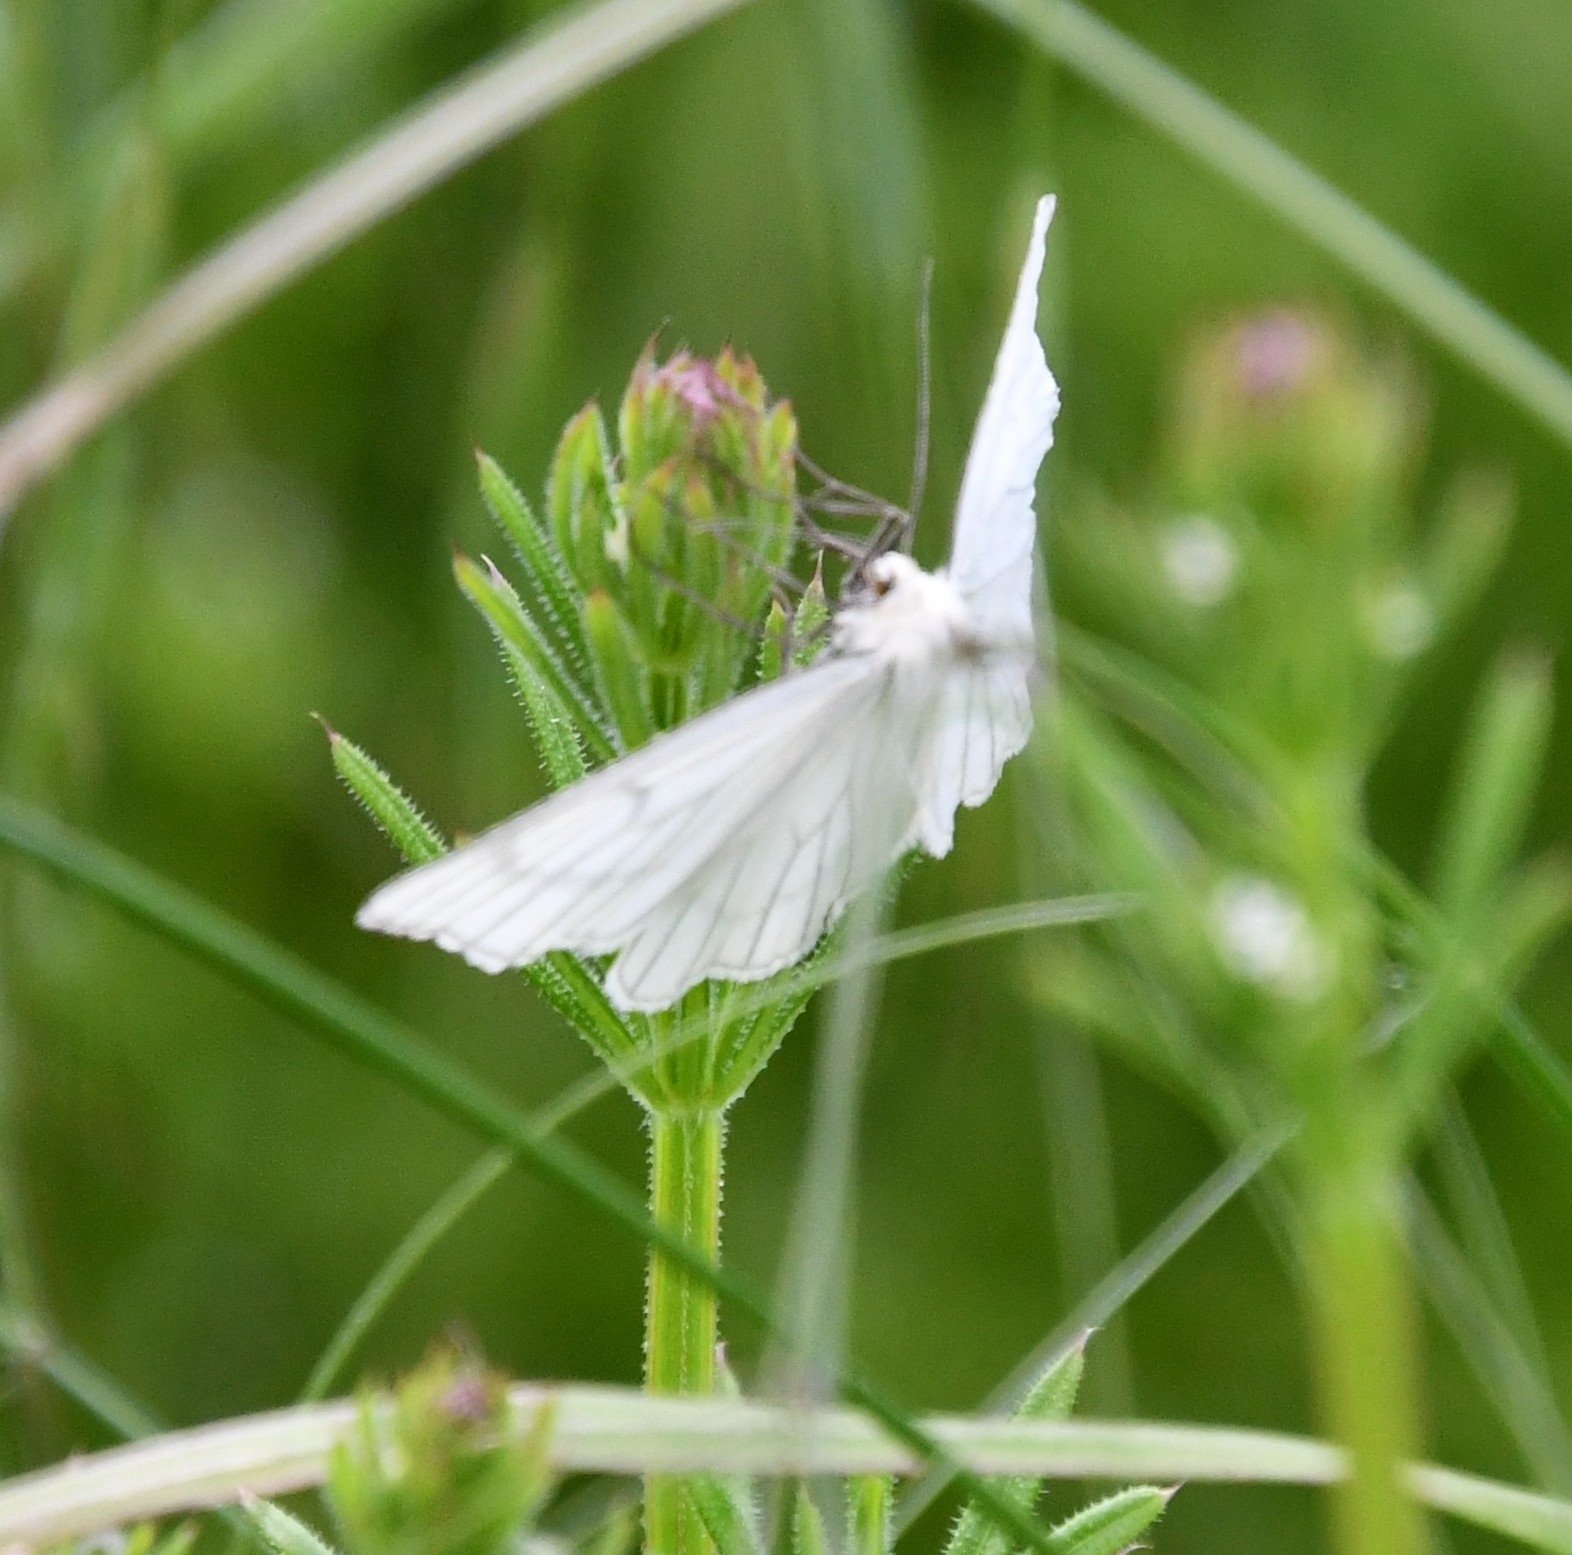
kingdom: Animalia
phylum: Arthropoda
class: Insecta
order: Lepidoptera
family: Geometridae
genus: Siona
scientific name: Siona lineata
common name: Black-veined moth
